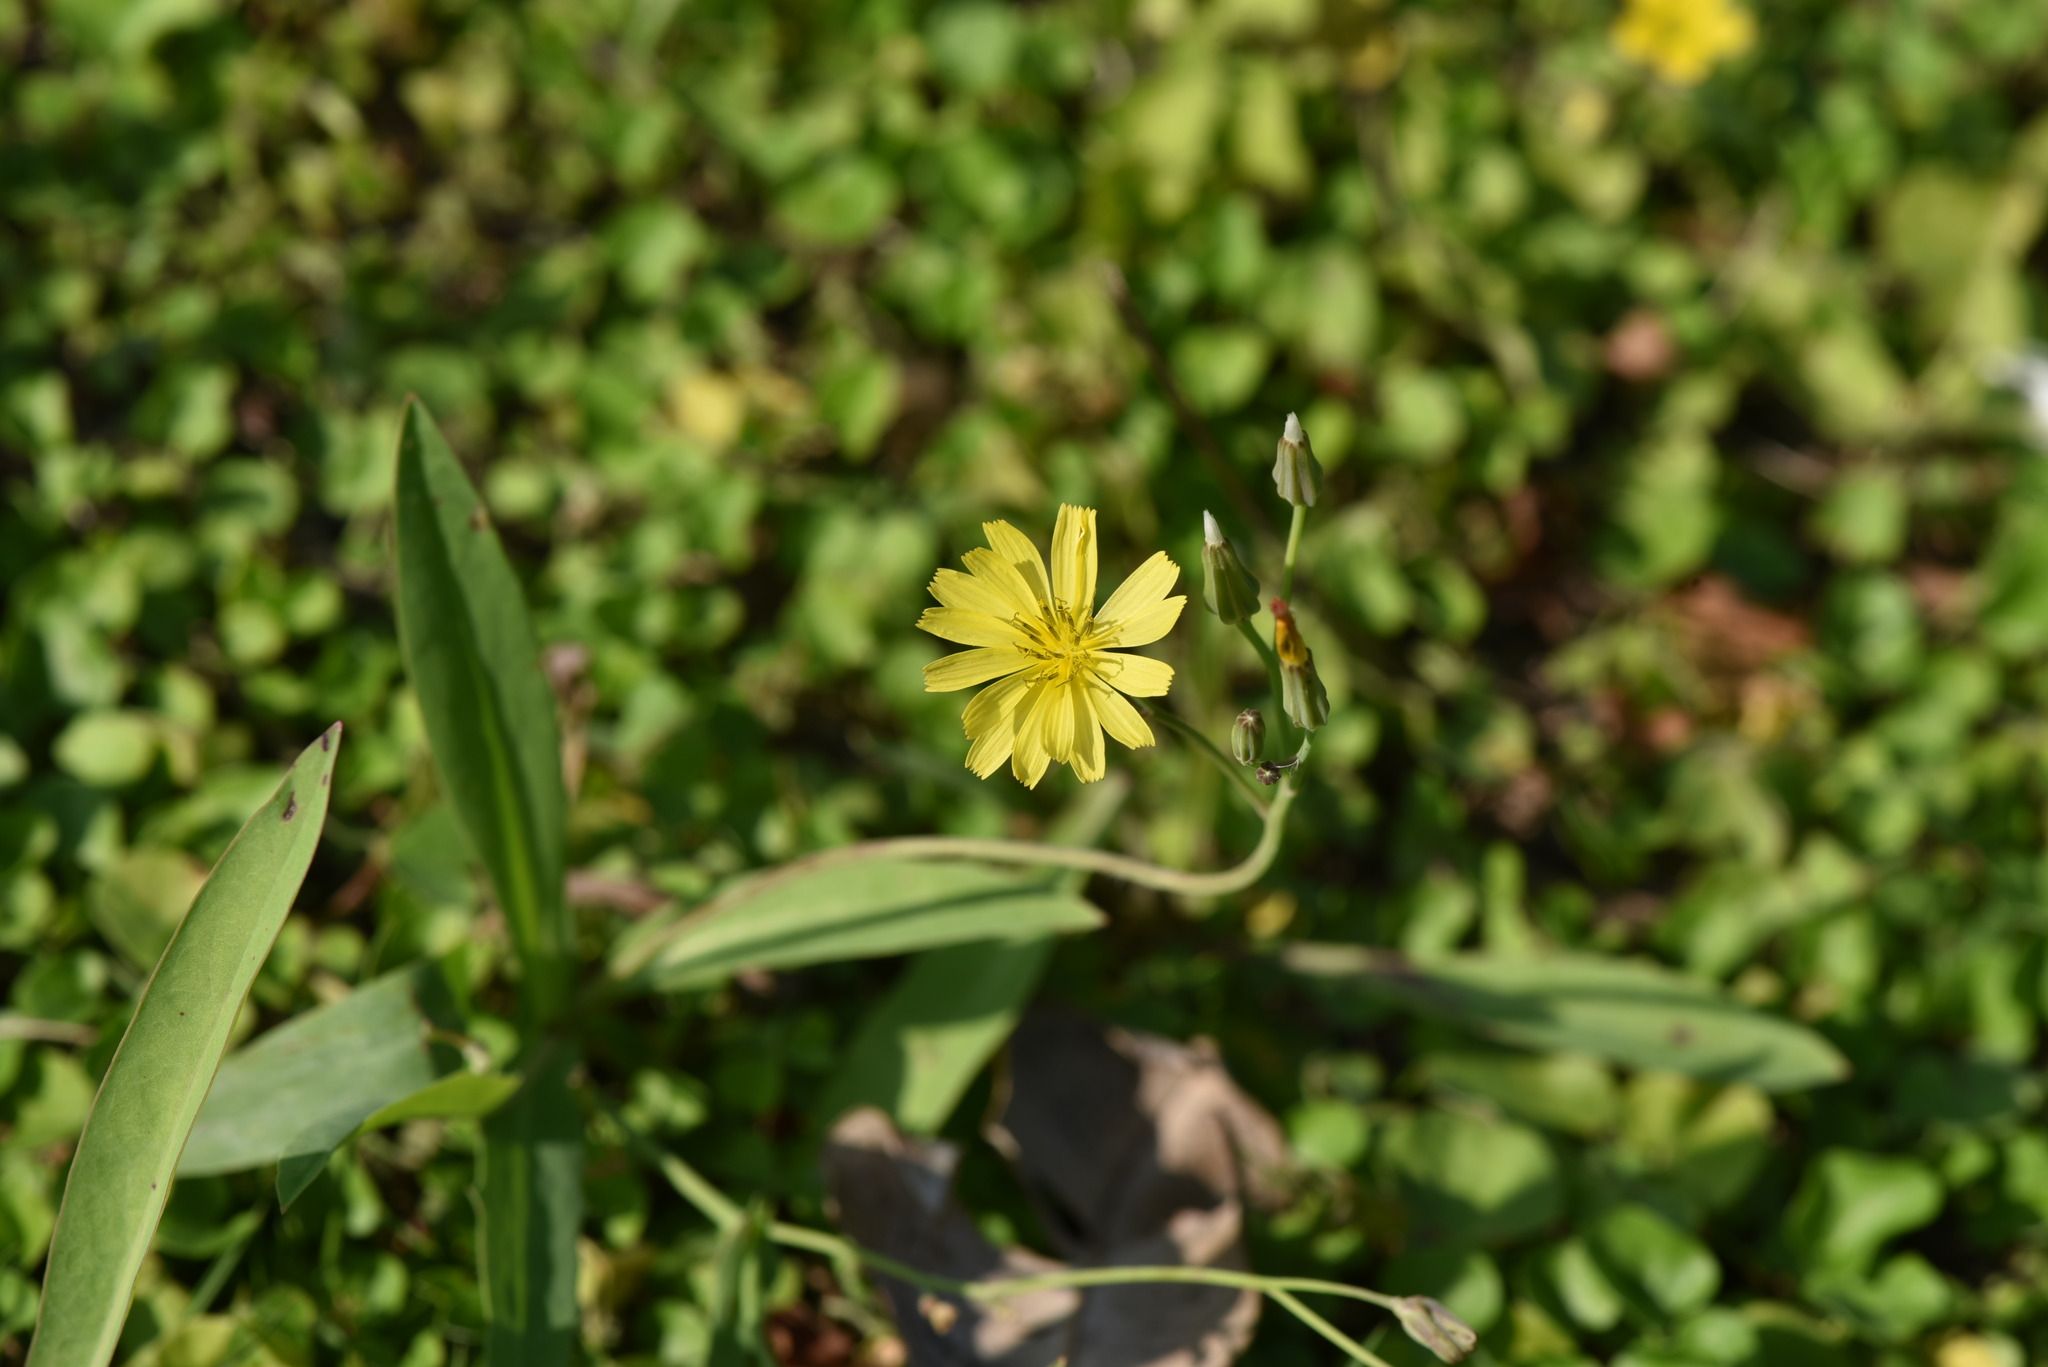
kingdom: Plantae
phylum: Tracheophyta
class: Magnoliopsida
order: Asterales
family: Asteraceae
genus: Ixeris
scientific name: Ixeris chinensis
